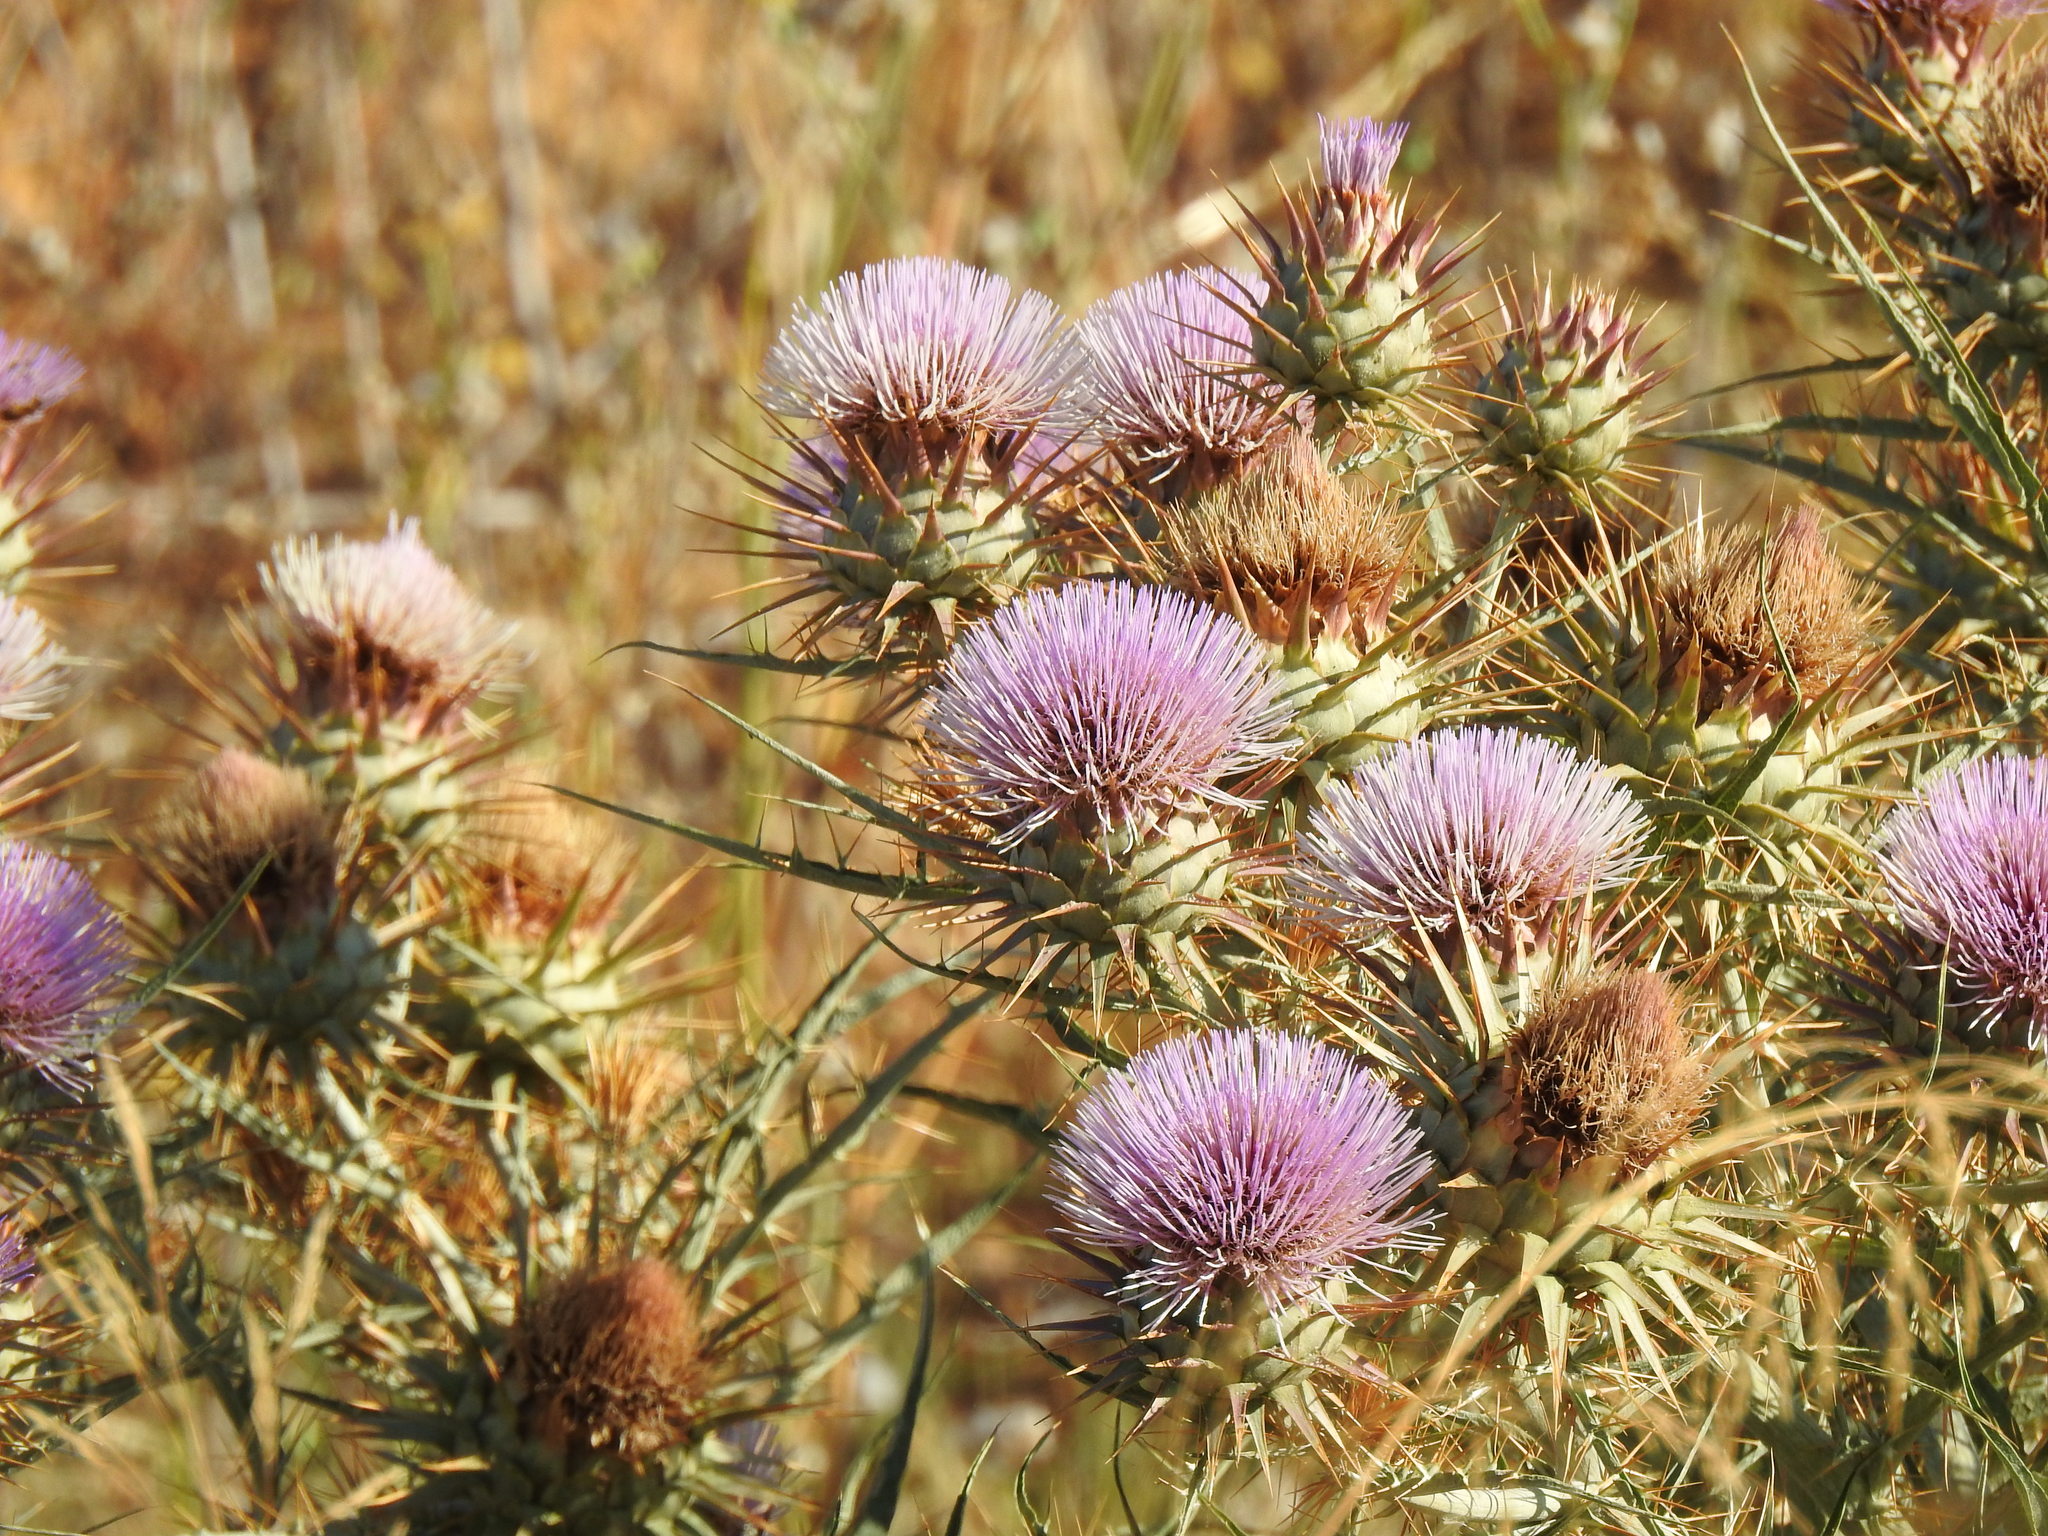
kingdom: Plantae
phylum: Tracheophyta
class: Magnoliopsida
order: Asterales
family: Asteraceae
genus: Cynara
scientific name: Cynara cardunculus
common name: Globe artichoke
